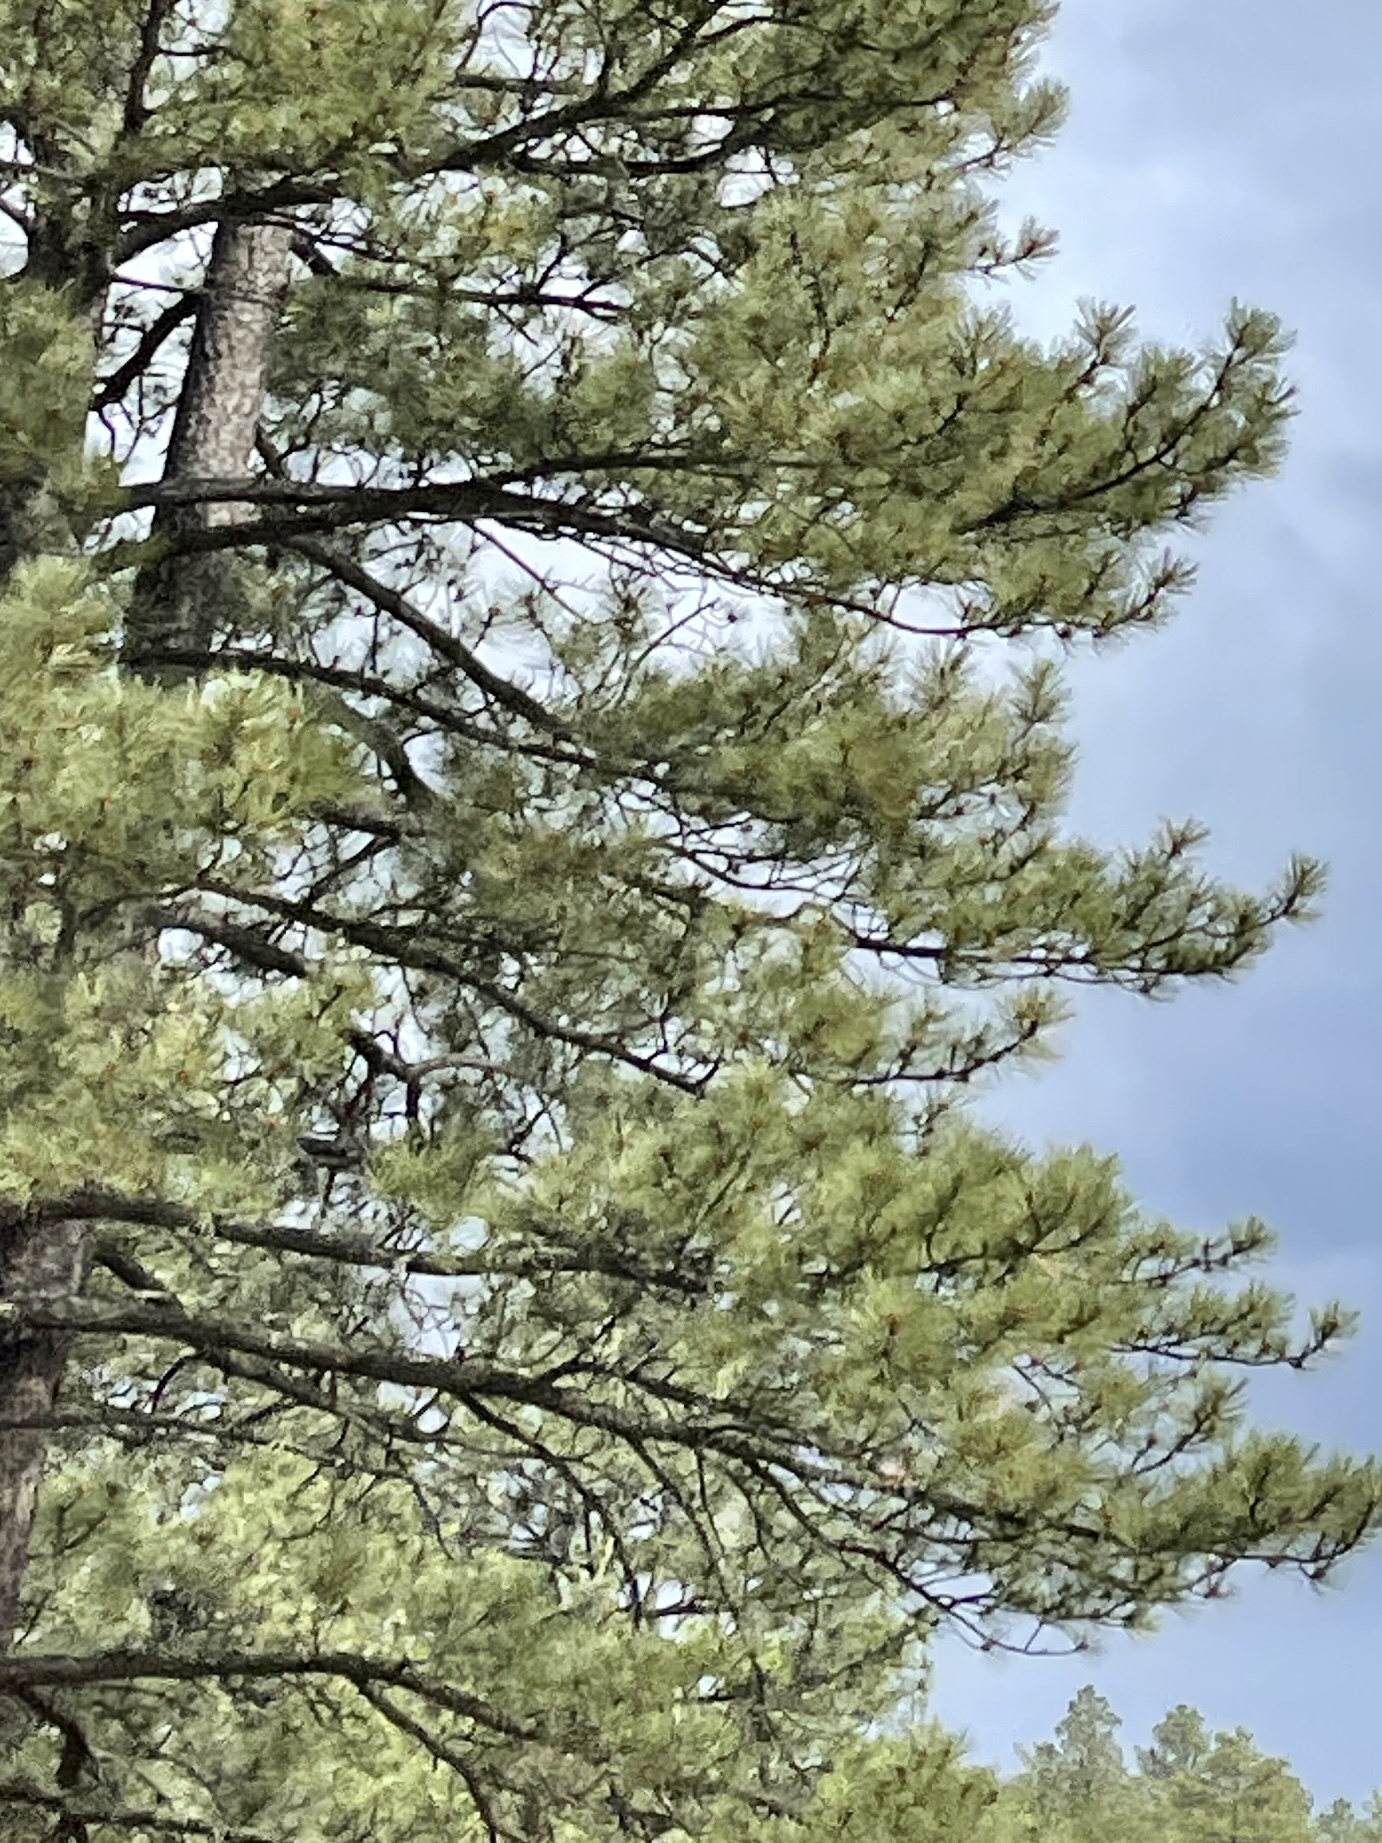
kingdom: Plantae
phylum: Tracheophyta
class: Pinopsida
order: Pinales
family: Pinaceae
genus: Pinus
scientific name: Pinus ponderosa
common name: Western yellow-pine
